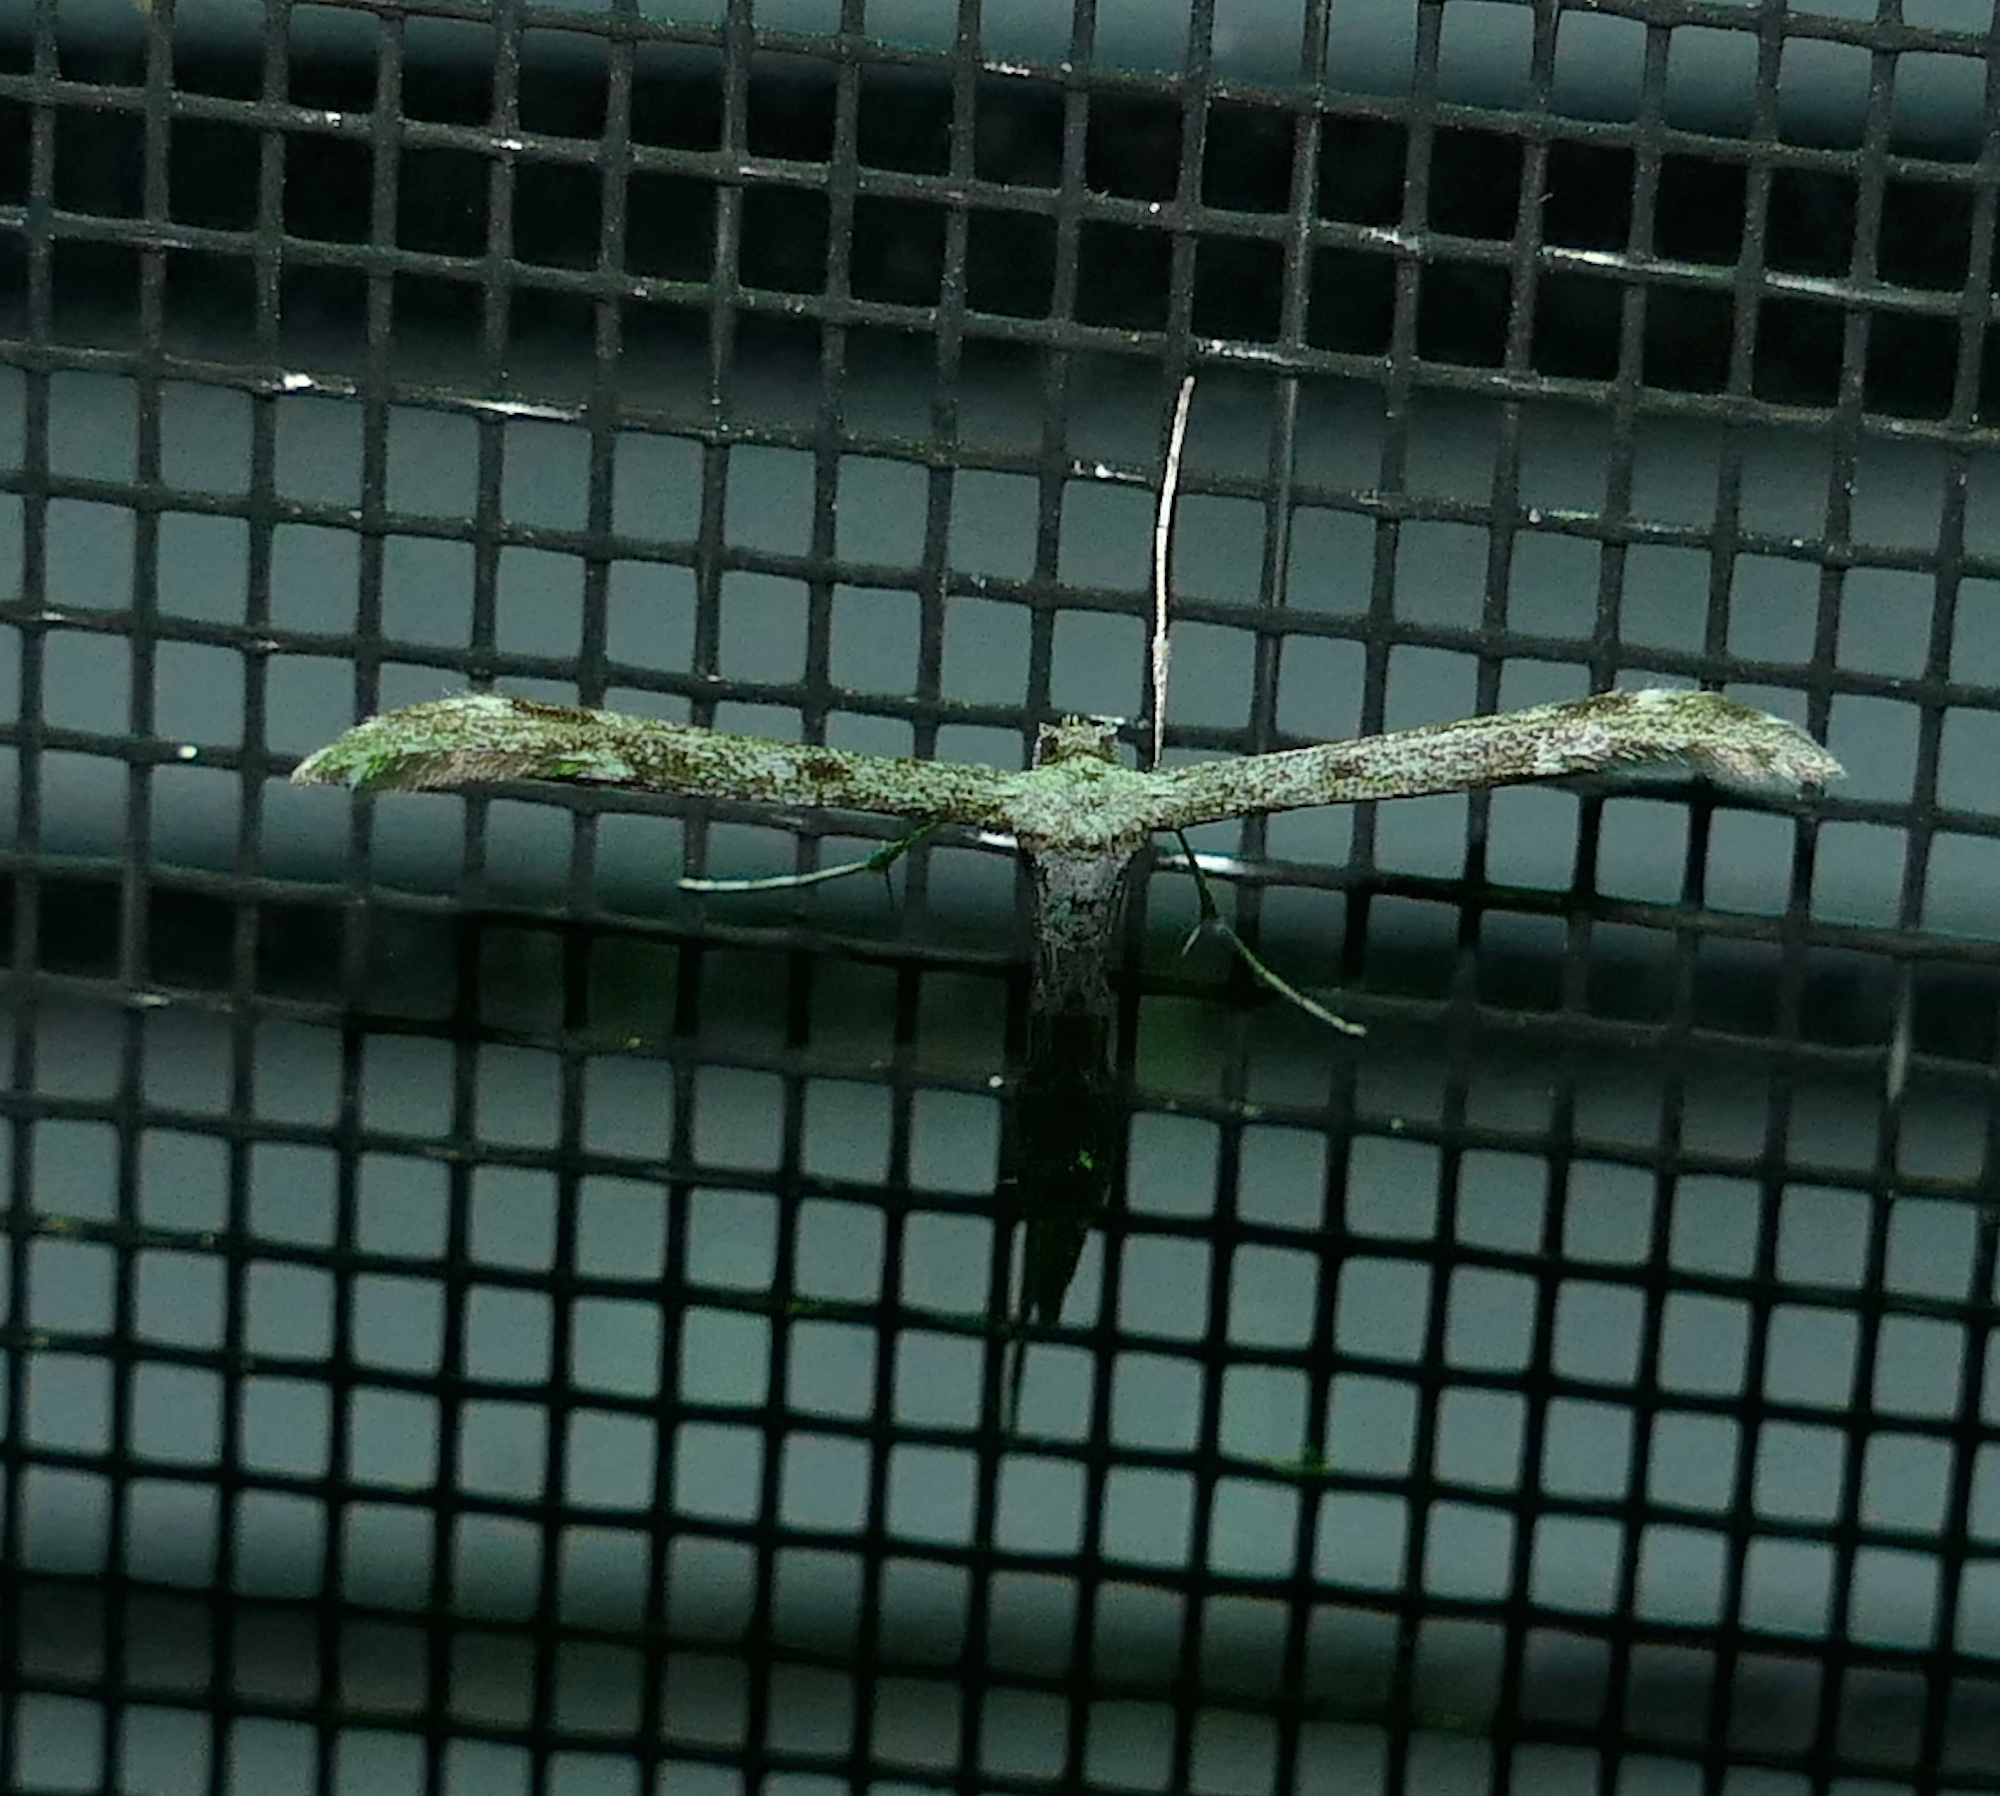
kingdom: Animalia
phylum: Arthropoda
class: Insecta
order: Lepidoptera
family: Pterophoridae
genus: Hellinsia
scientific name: Hellinsia inquinatus
